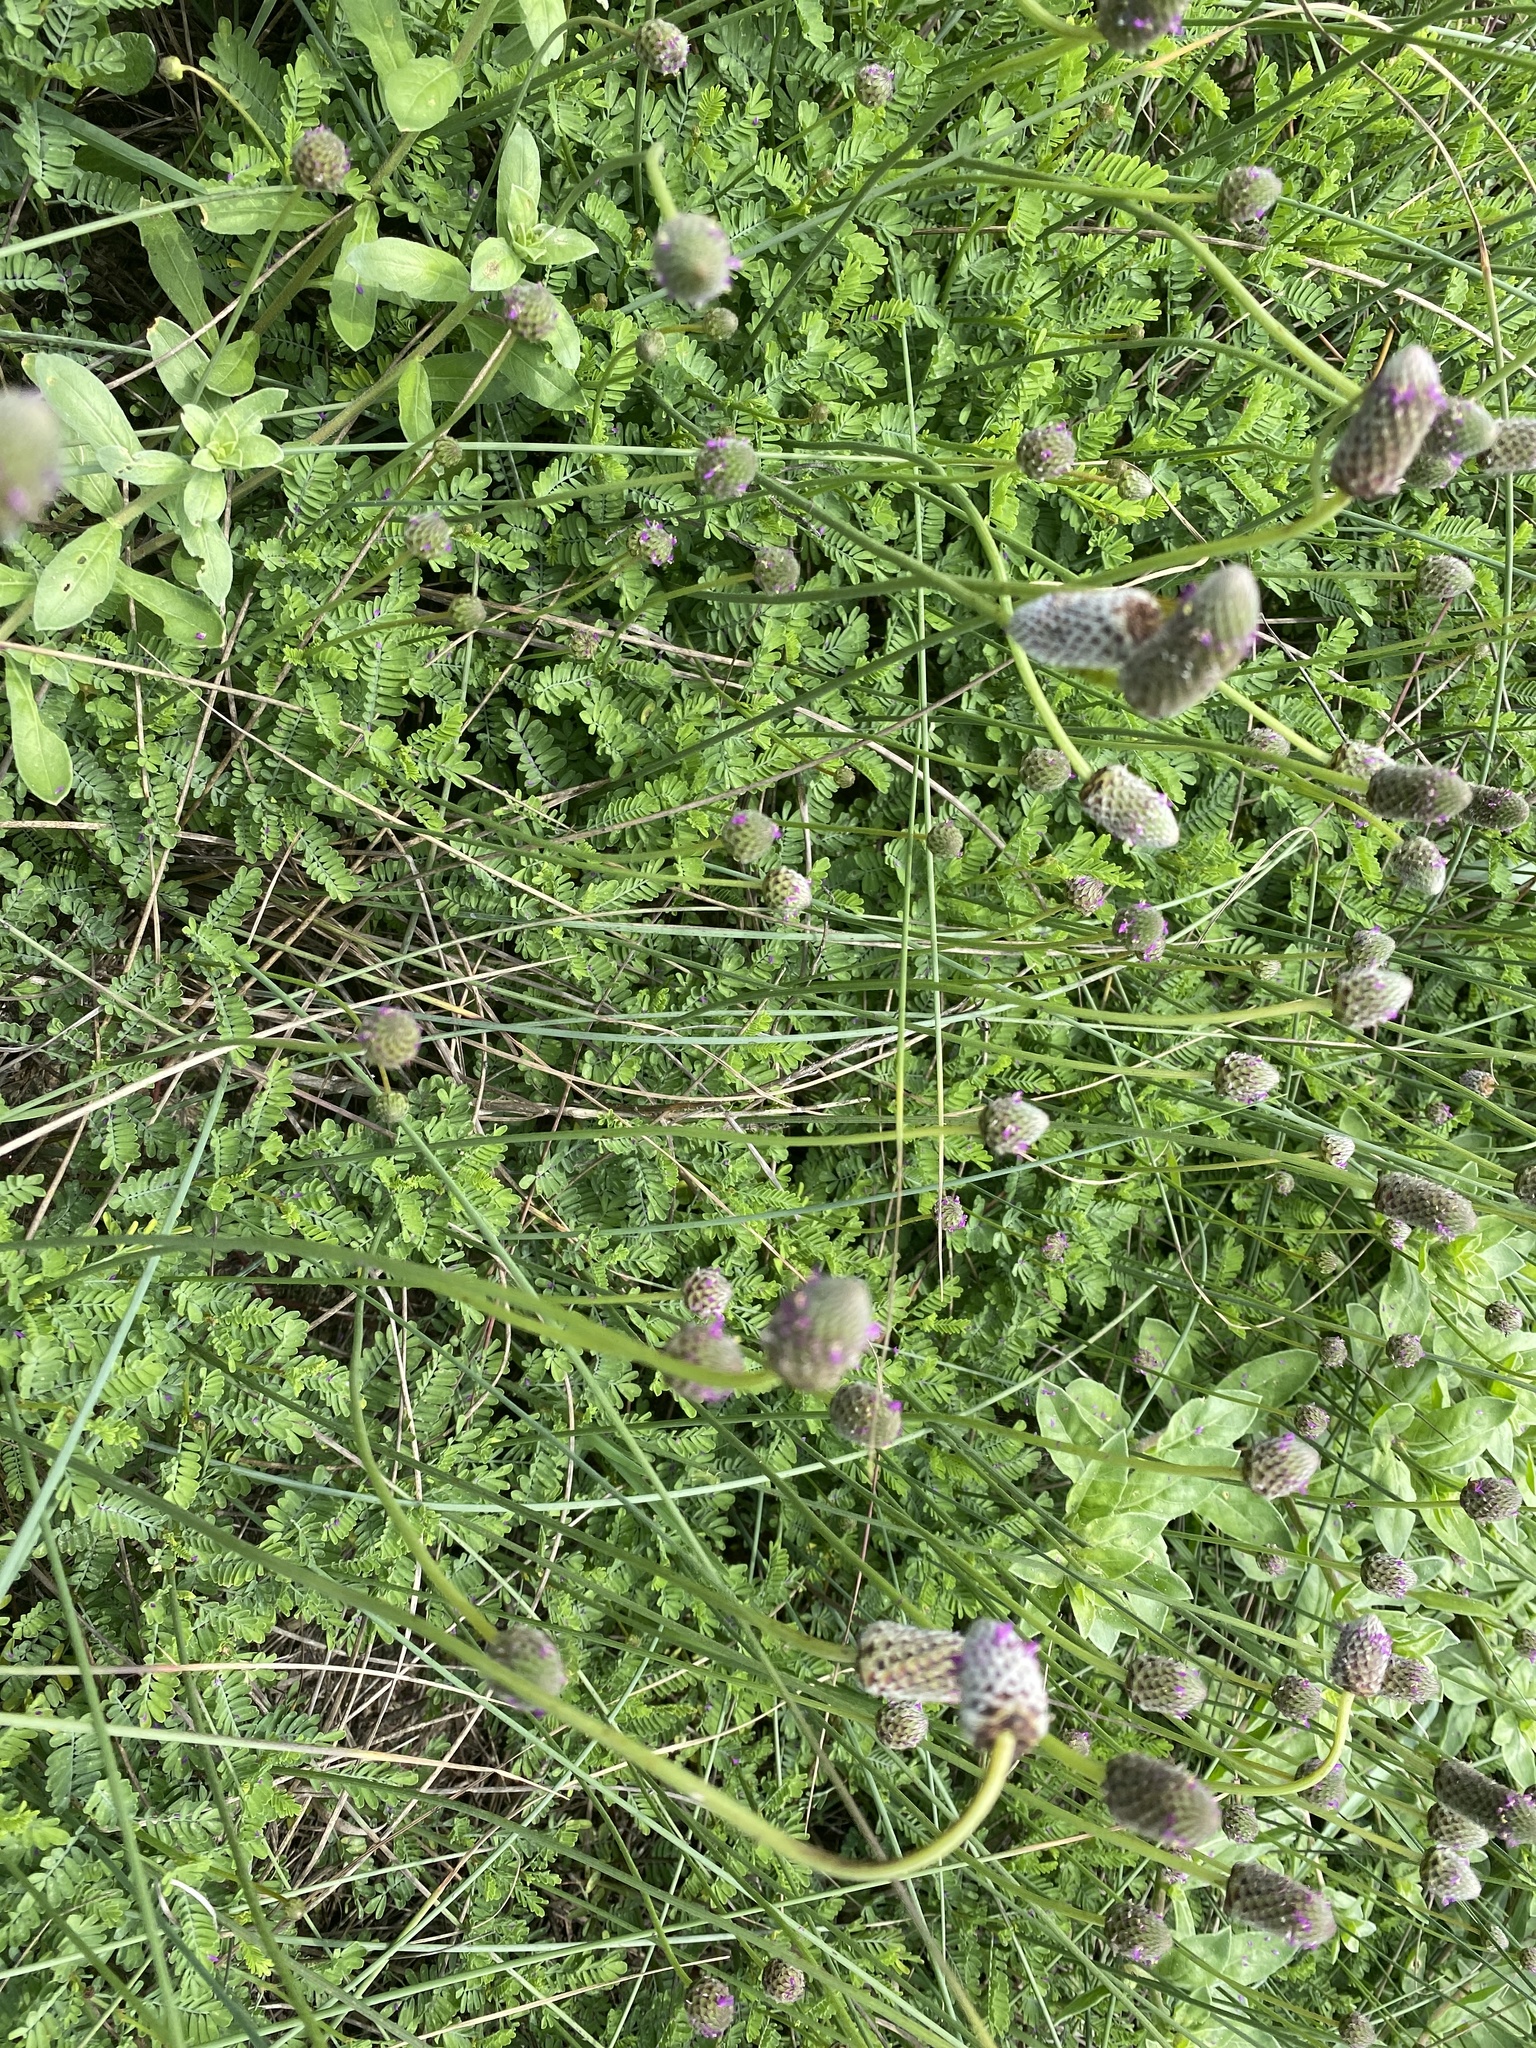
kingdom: Plantae
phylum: Tracheophyta
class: Magnoliopsida
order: Fabales
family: Fabaceae
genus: Dalea
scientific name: Dalea emarginata
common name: Wedgeleaf prairie clover
